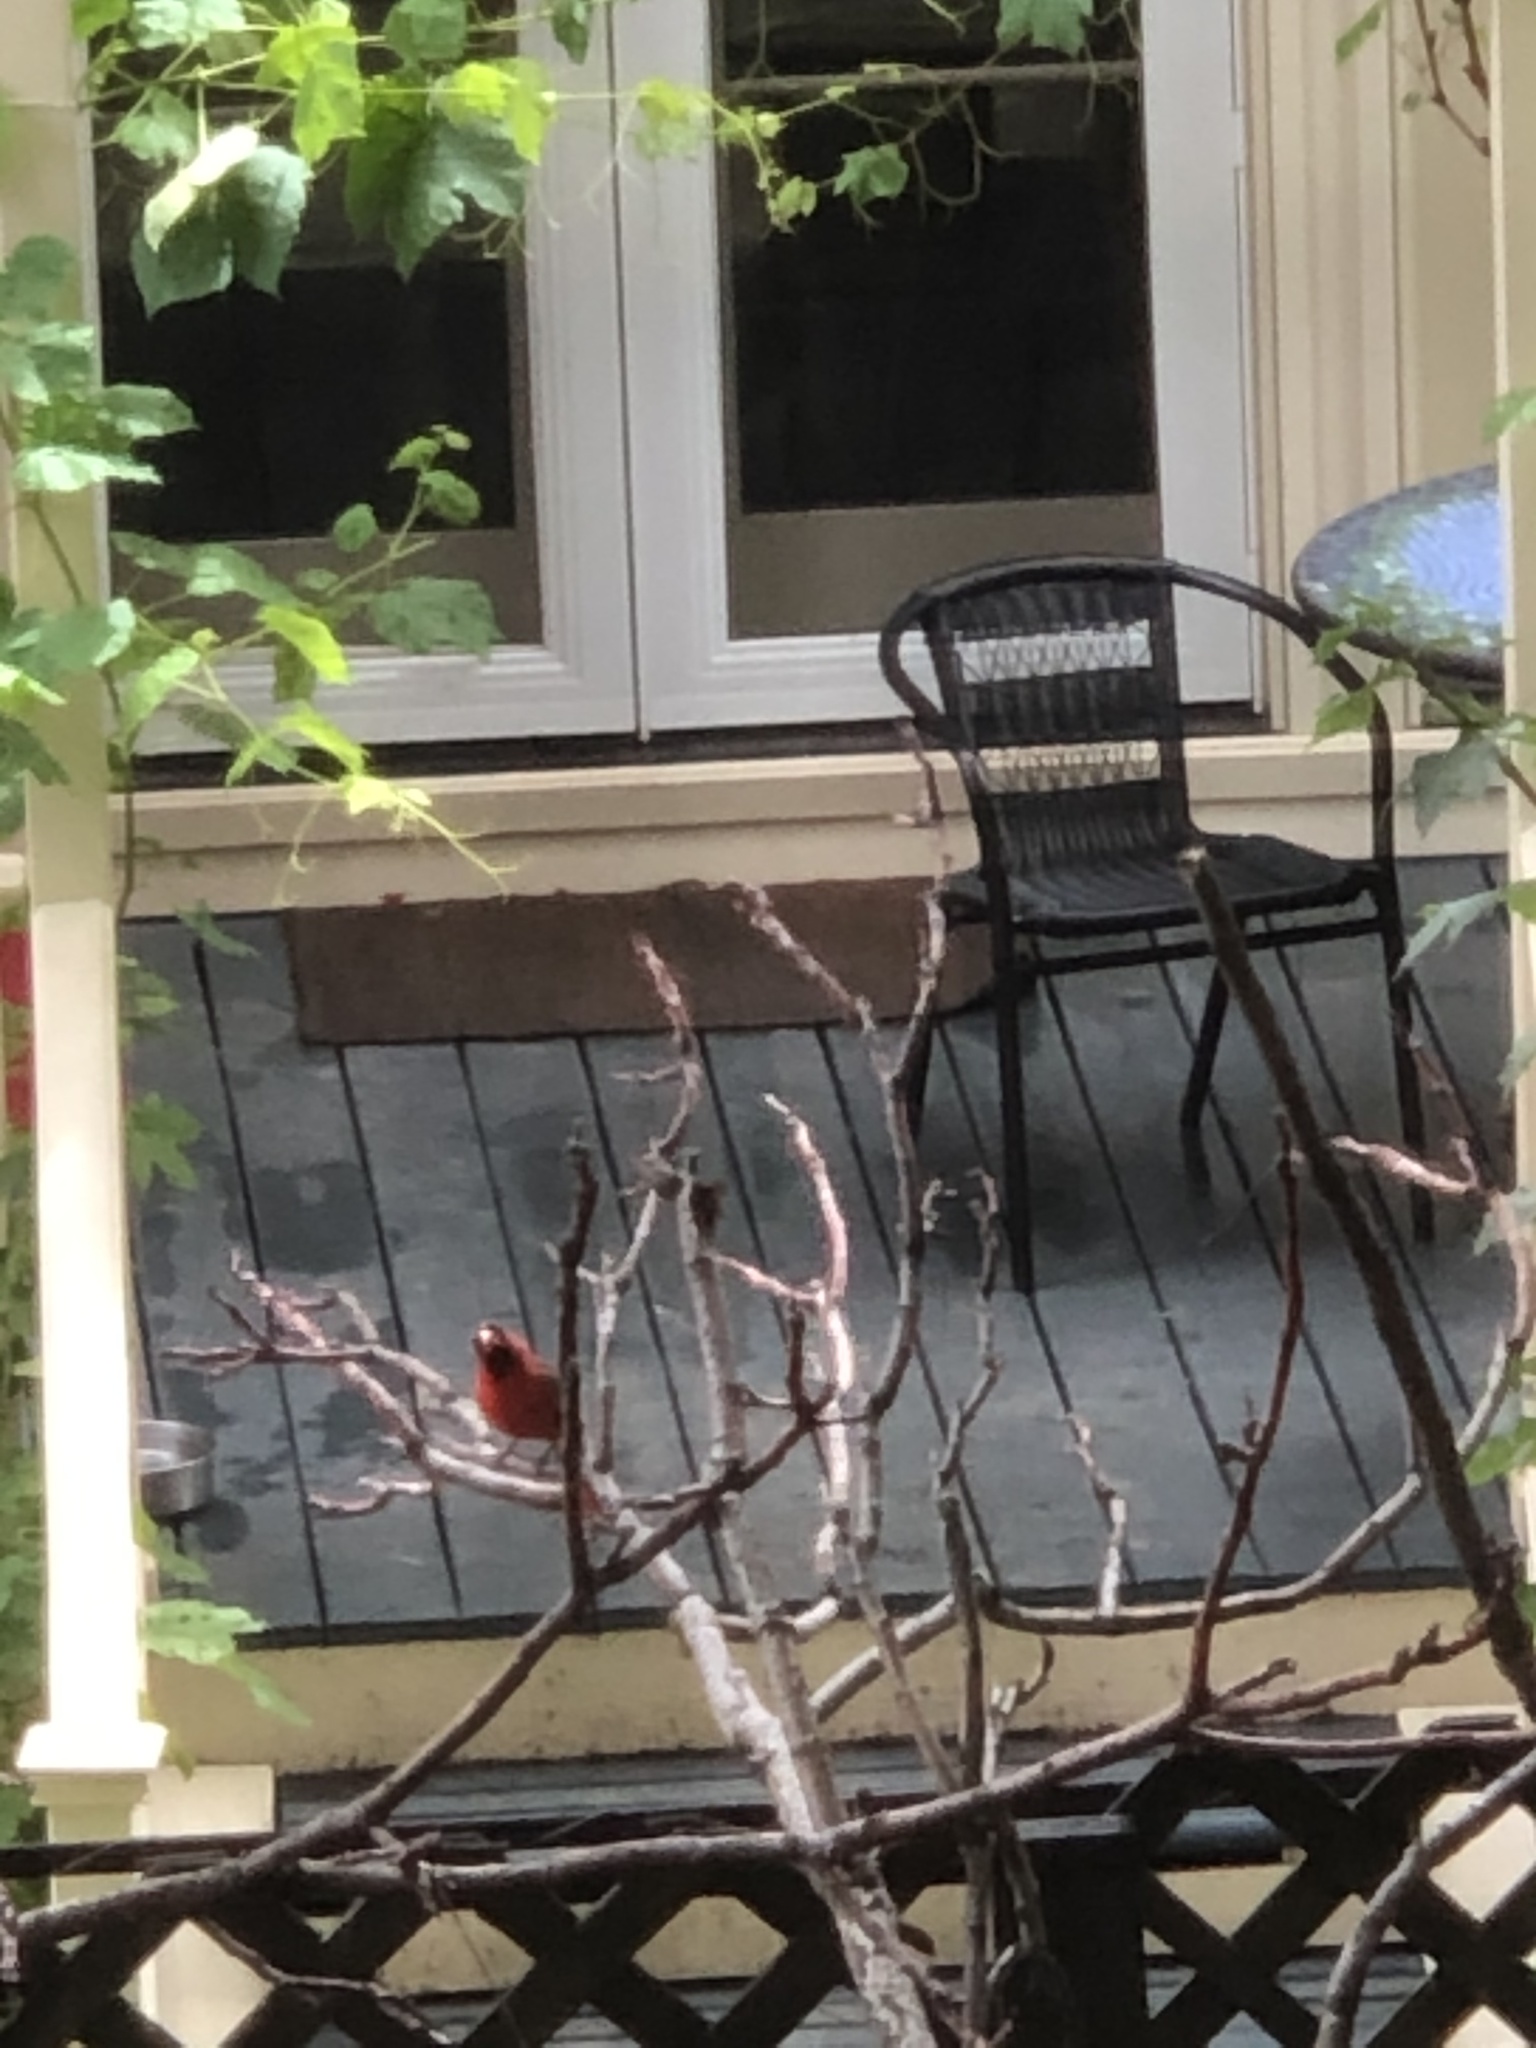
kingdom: Animalia
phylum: Chordata
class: Aves
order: Passeriformes
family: Cardinalidae
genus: Cardinalis
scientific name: Cardinalis cardinalis
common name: Northern cardinal
